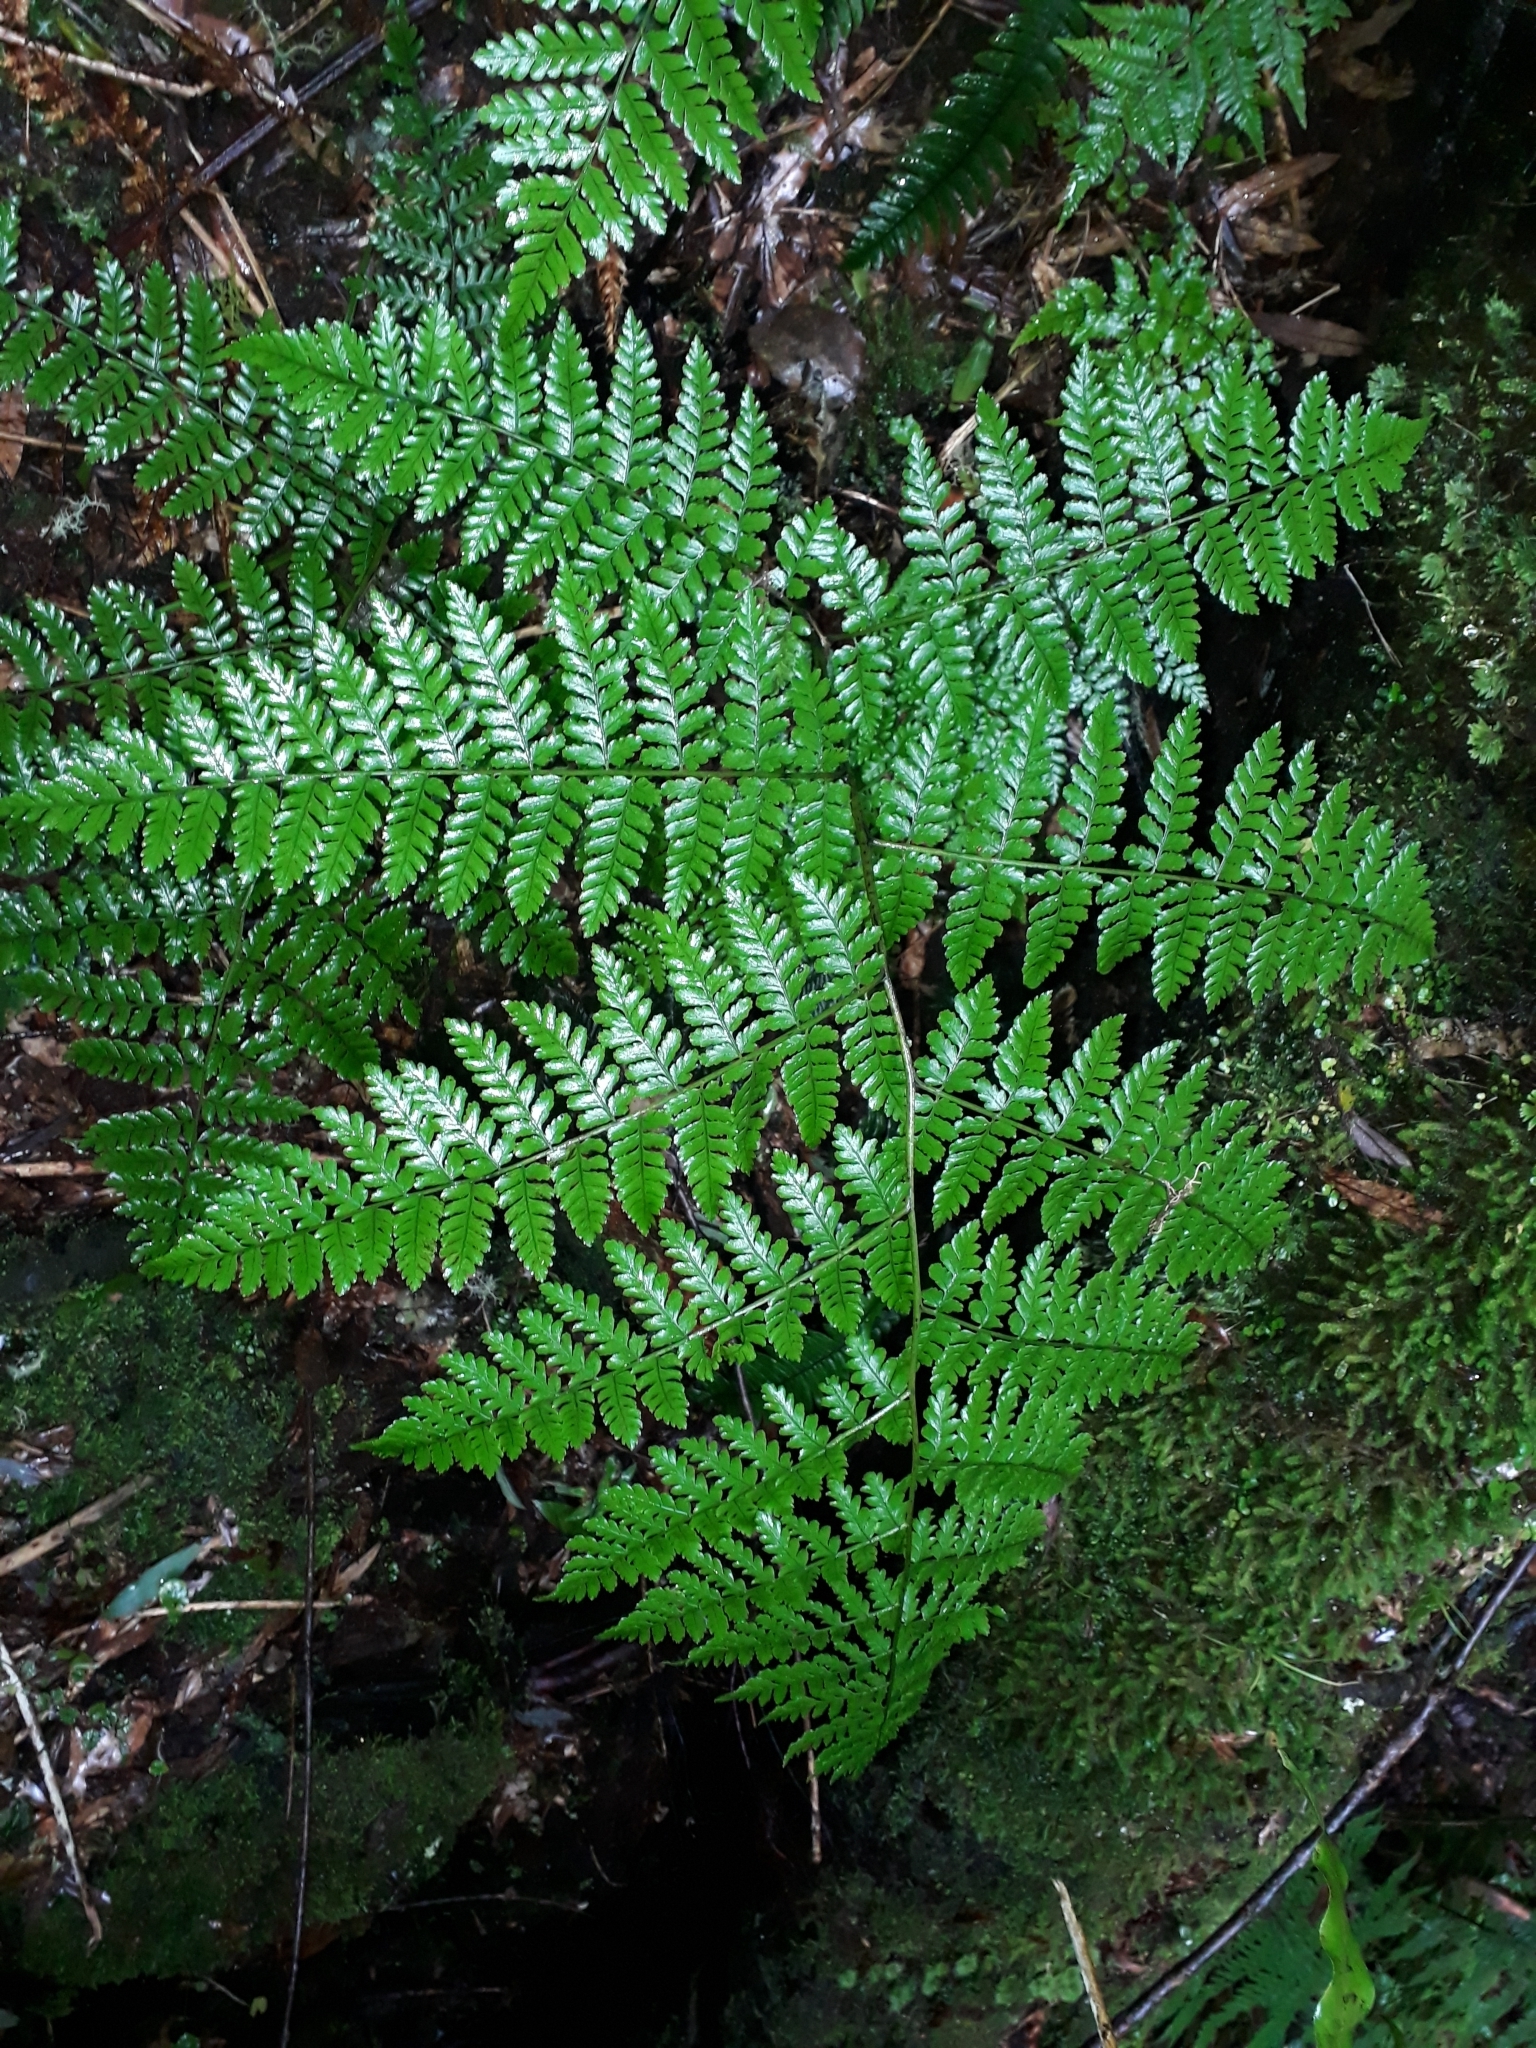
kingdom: Plantae
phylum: Tracheophyta
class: Polypodiopsida
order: Polypodiales
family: Athyriaceae
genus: Diplazium
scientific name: Diplazium australe
